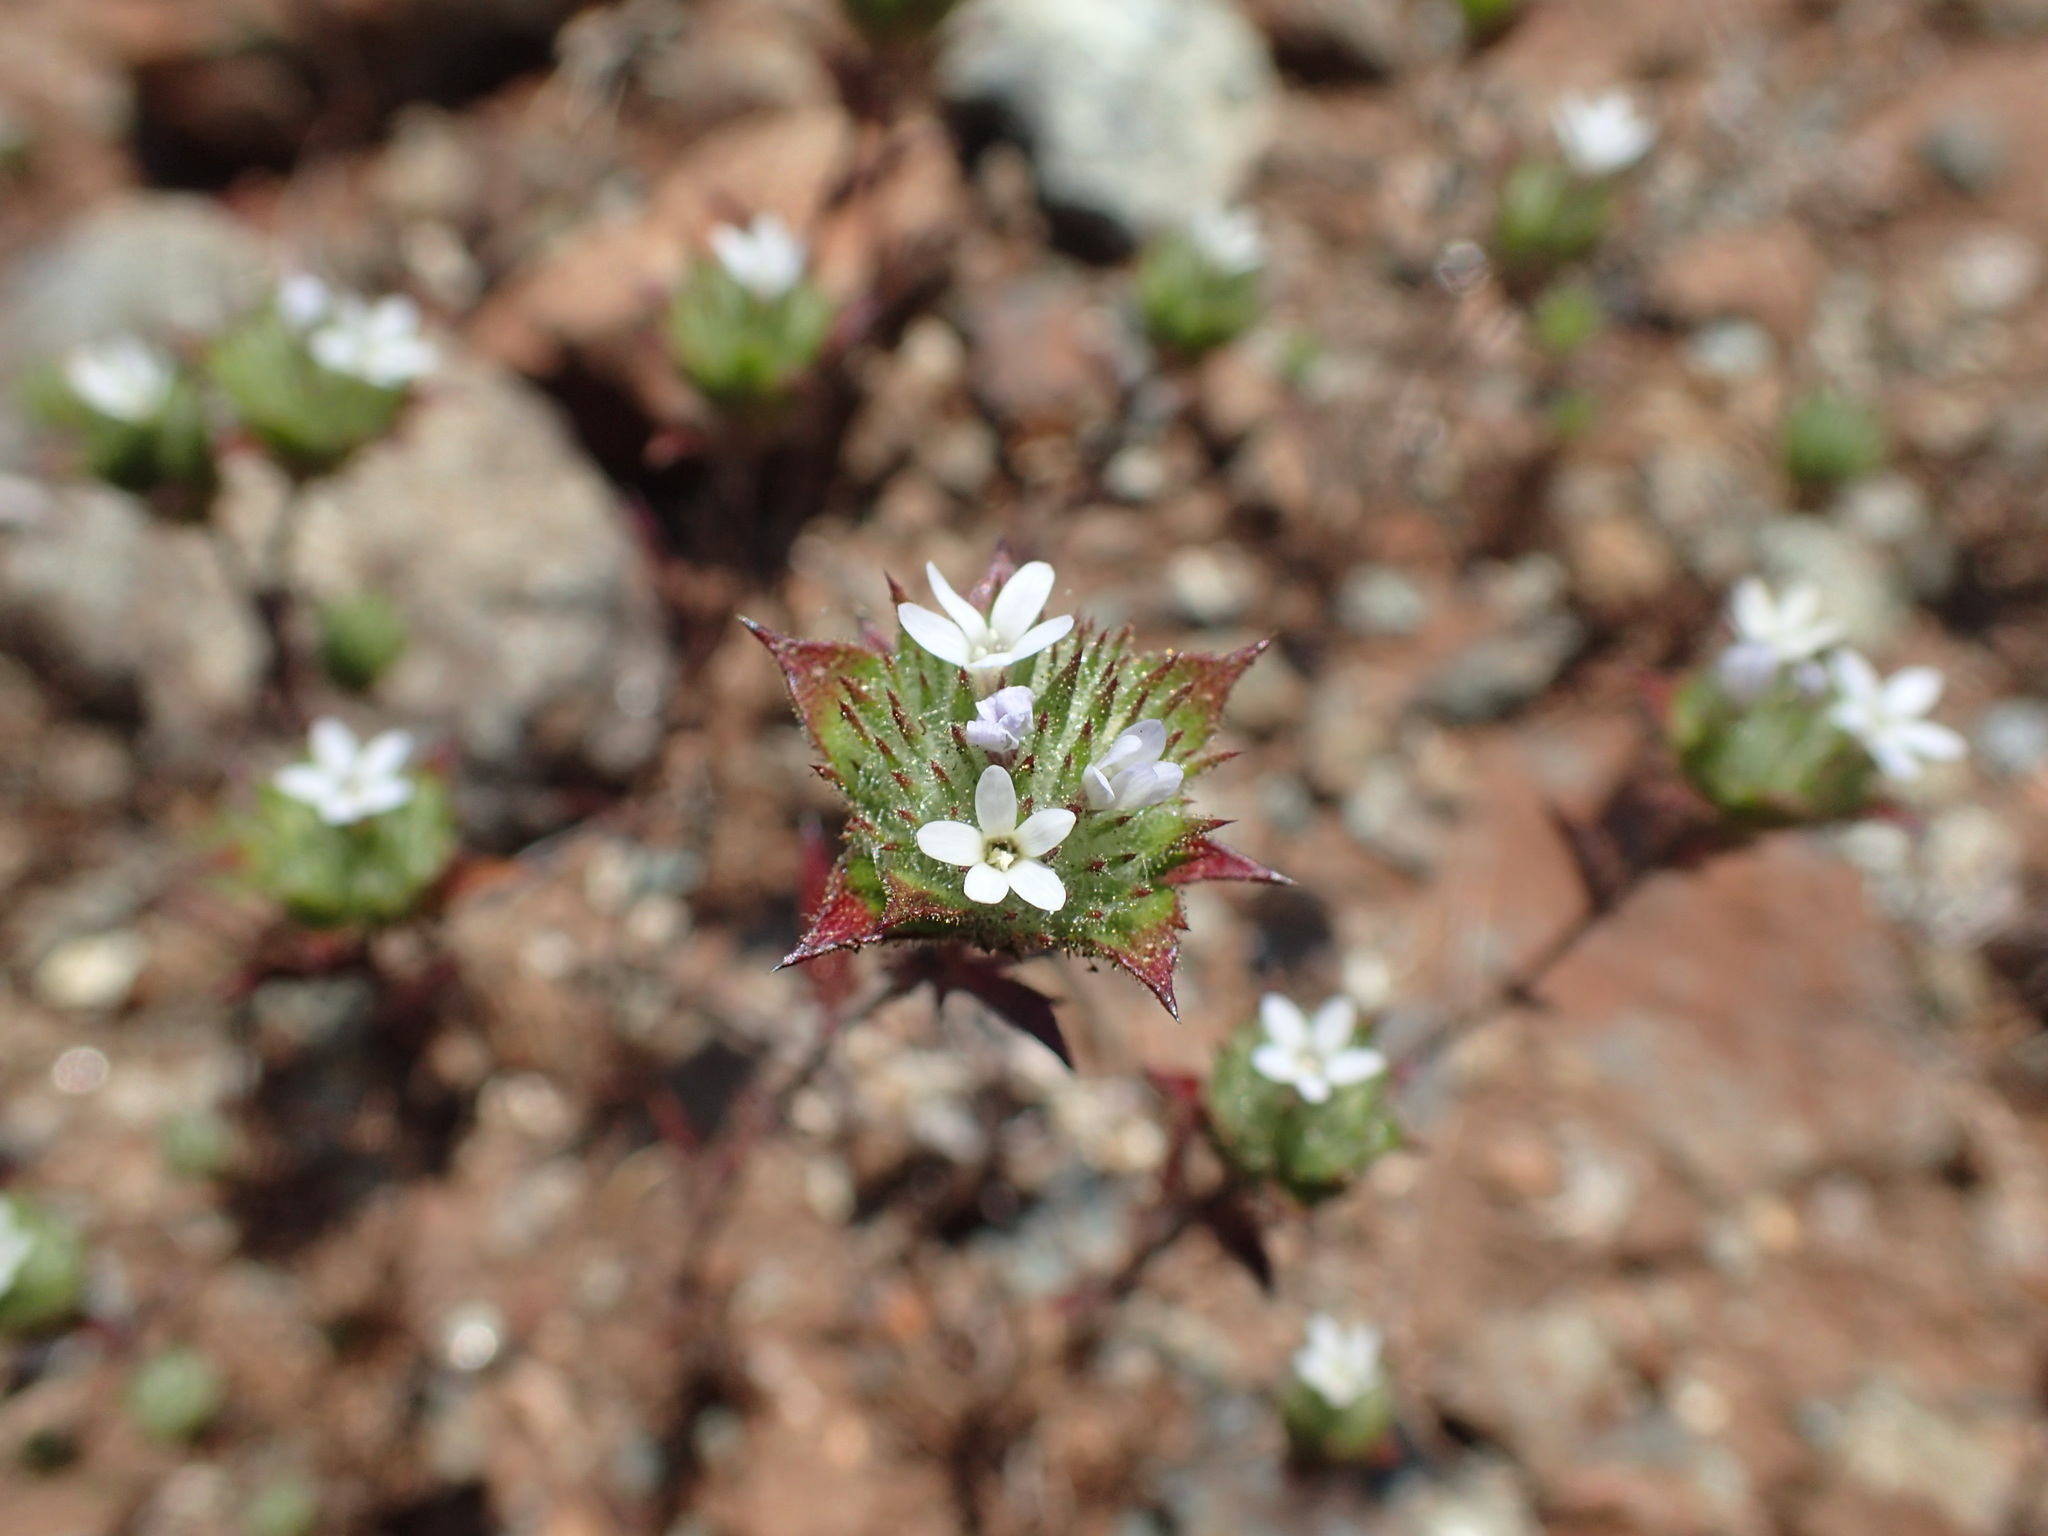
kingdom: Plantae
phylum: Tracheophyta
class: Magnoliopsida
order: Ericales
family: Polemoniaceae
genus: Navarretia
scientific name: Navarretia rosulata
